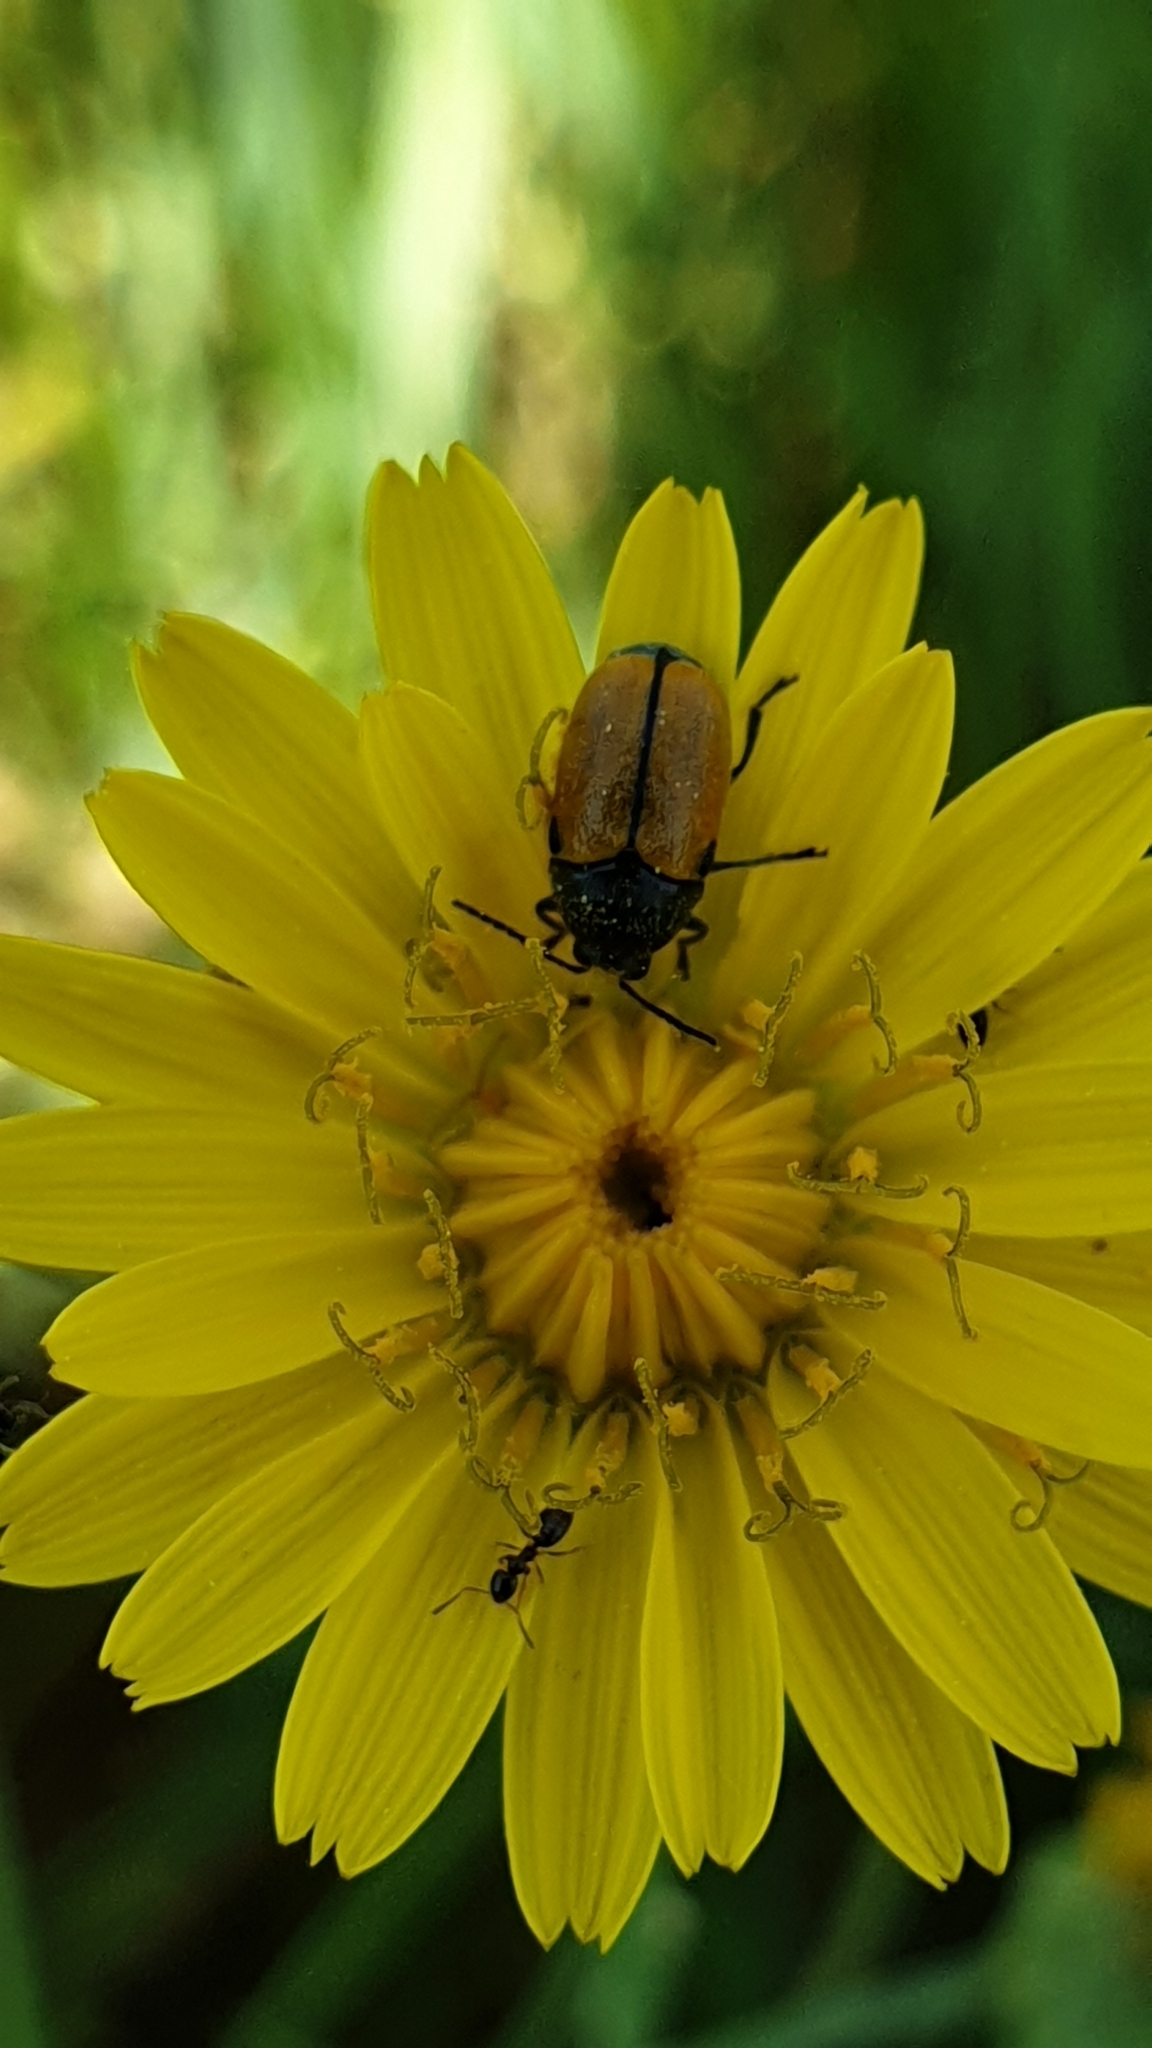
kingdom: Animalia
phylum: Arthropoda
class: Insecta
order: Coleoptera
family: Chrysomelidae
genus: Cryptocephalus
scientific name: Cryptocephalus rugicollis
